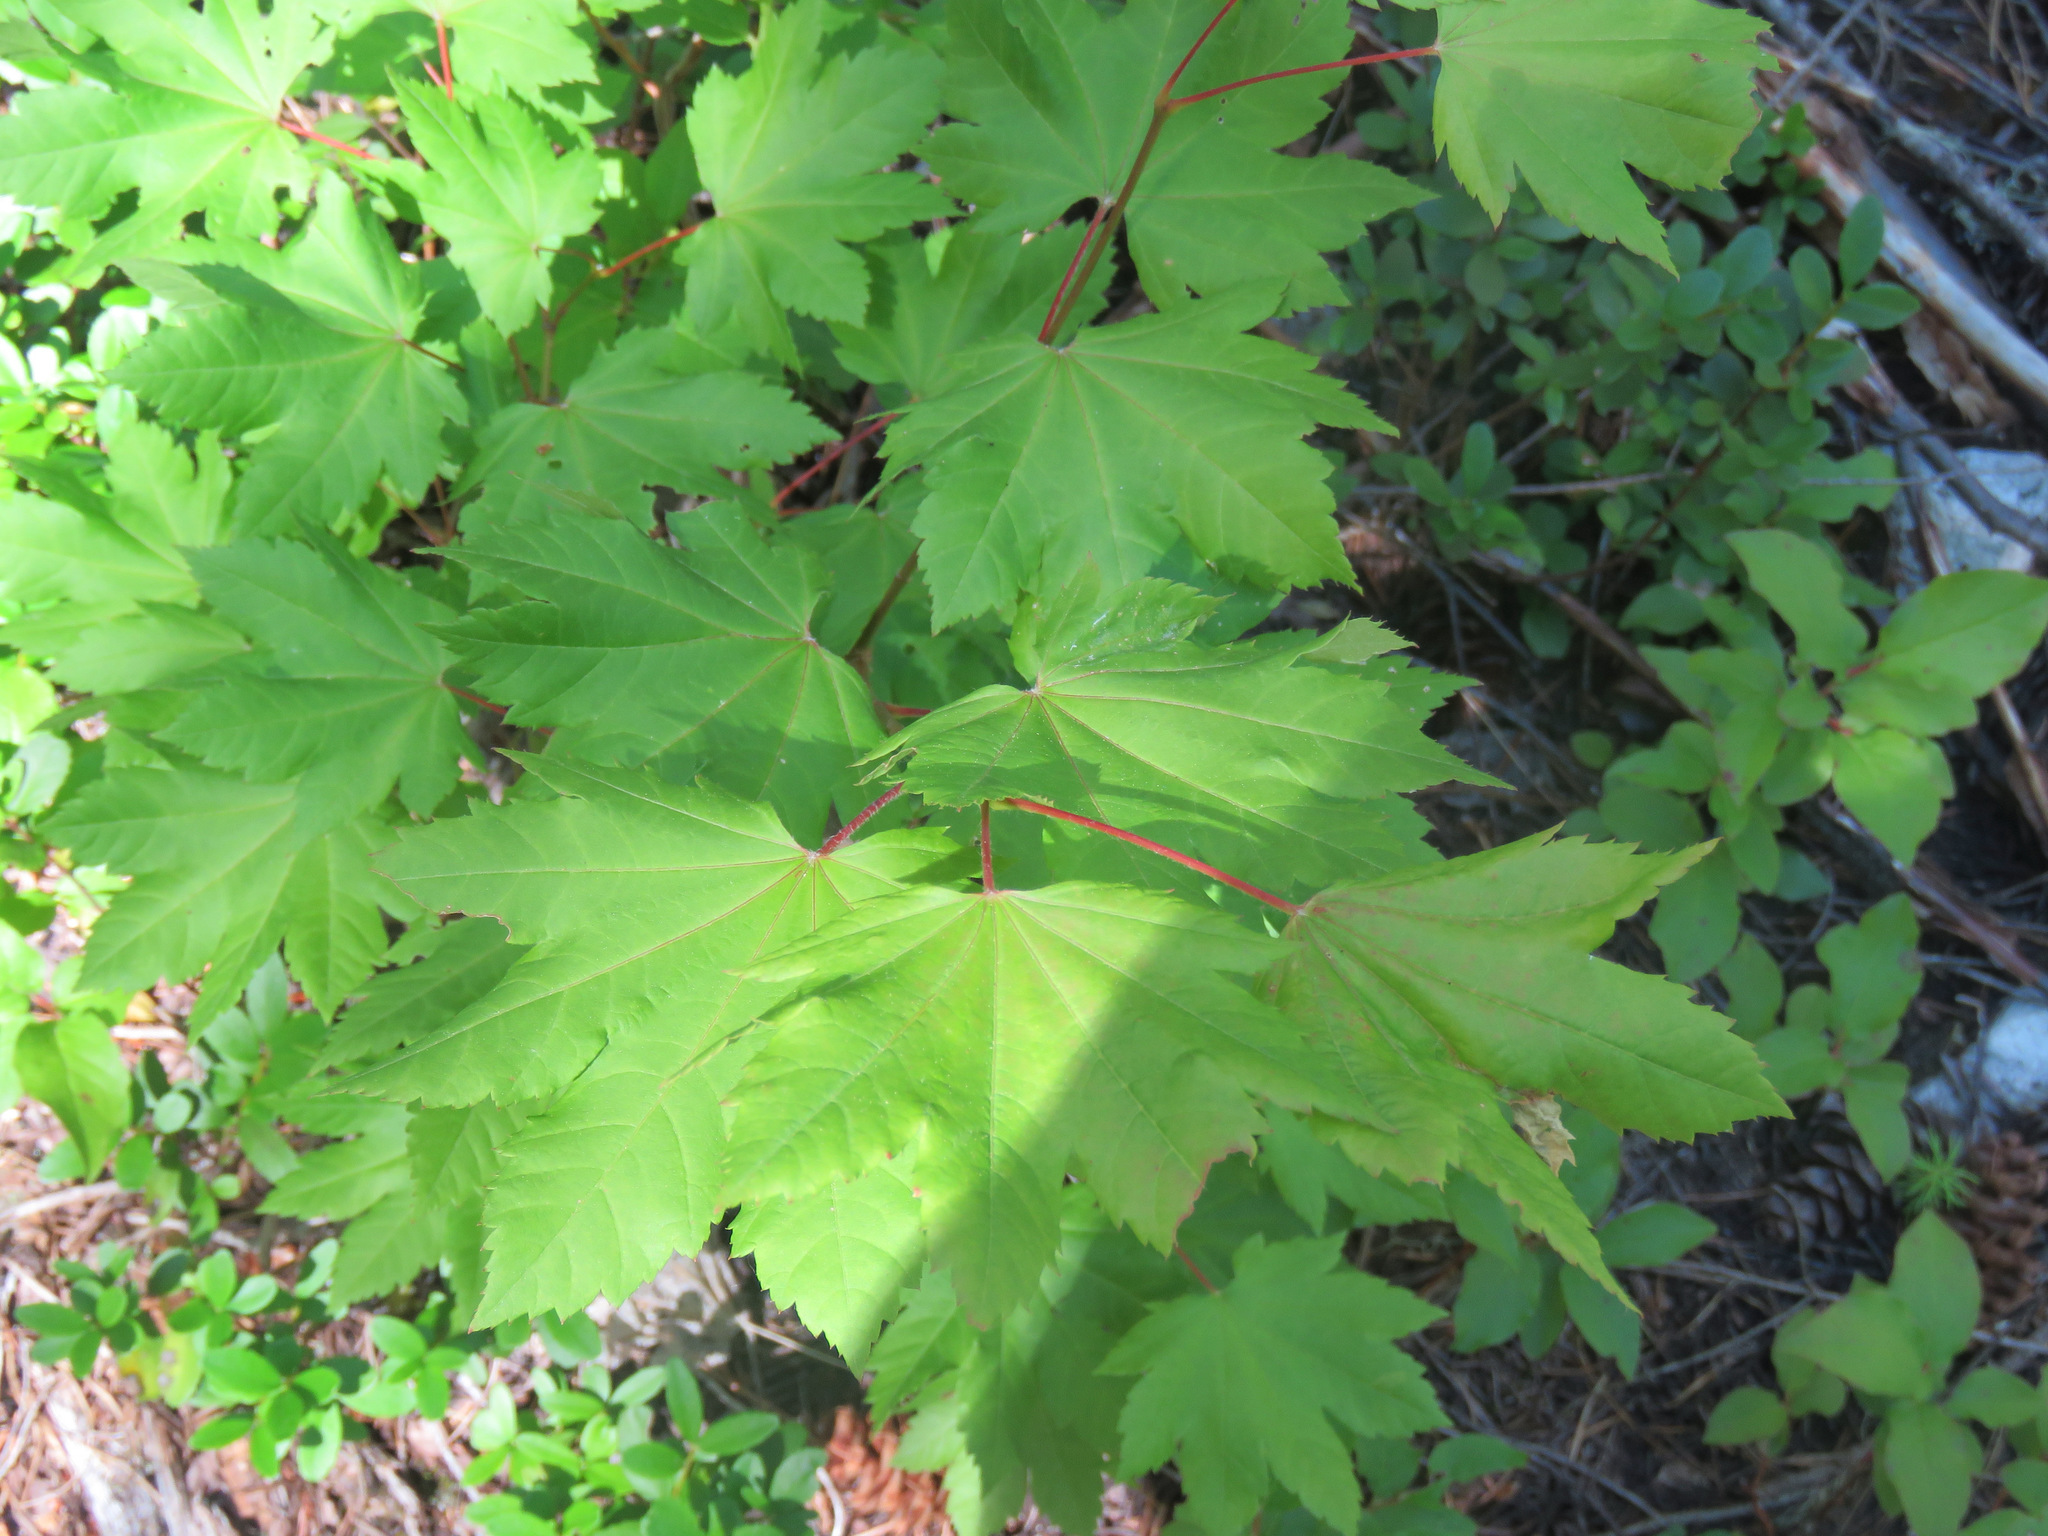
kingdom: Plantae
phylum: Tracheophyta
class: Magnoliopsida
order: Sapindales
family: Sapindaceae
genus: Acer
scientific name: Acer circinatum
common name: Vine maple
